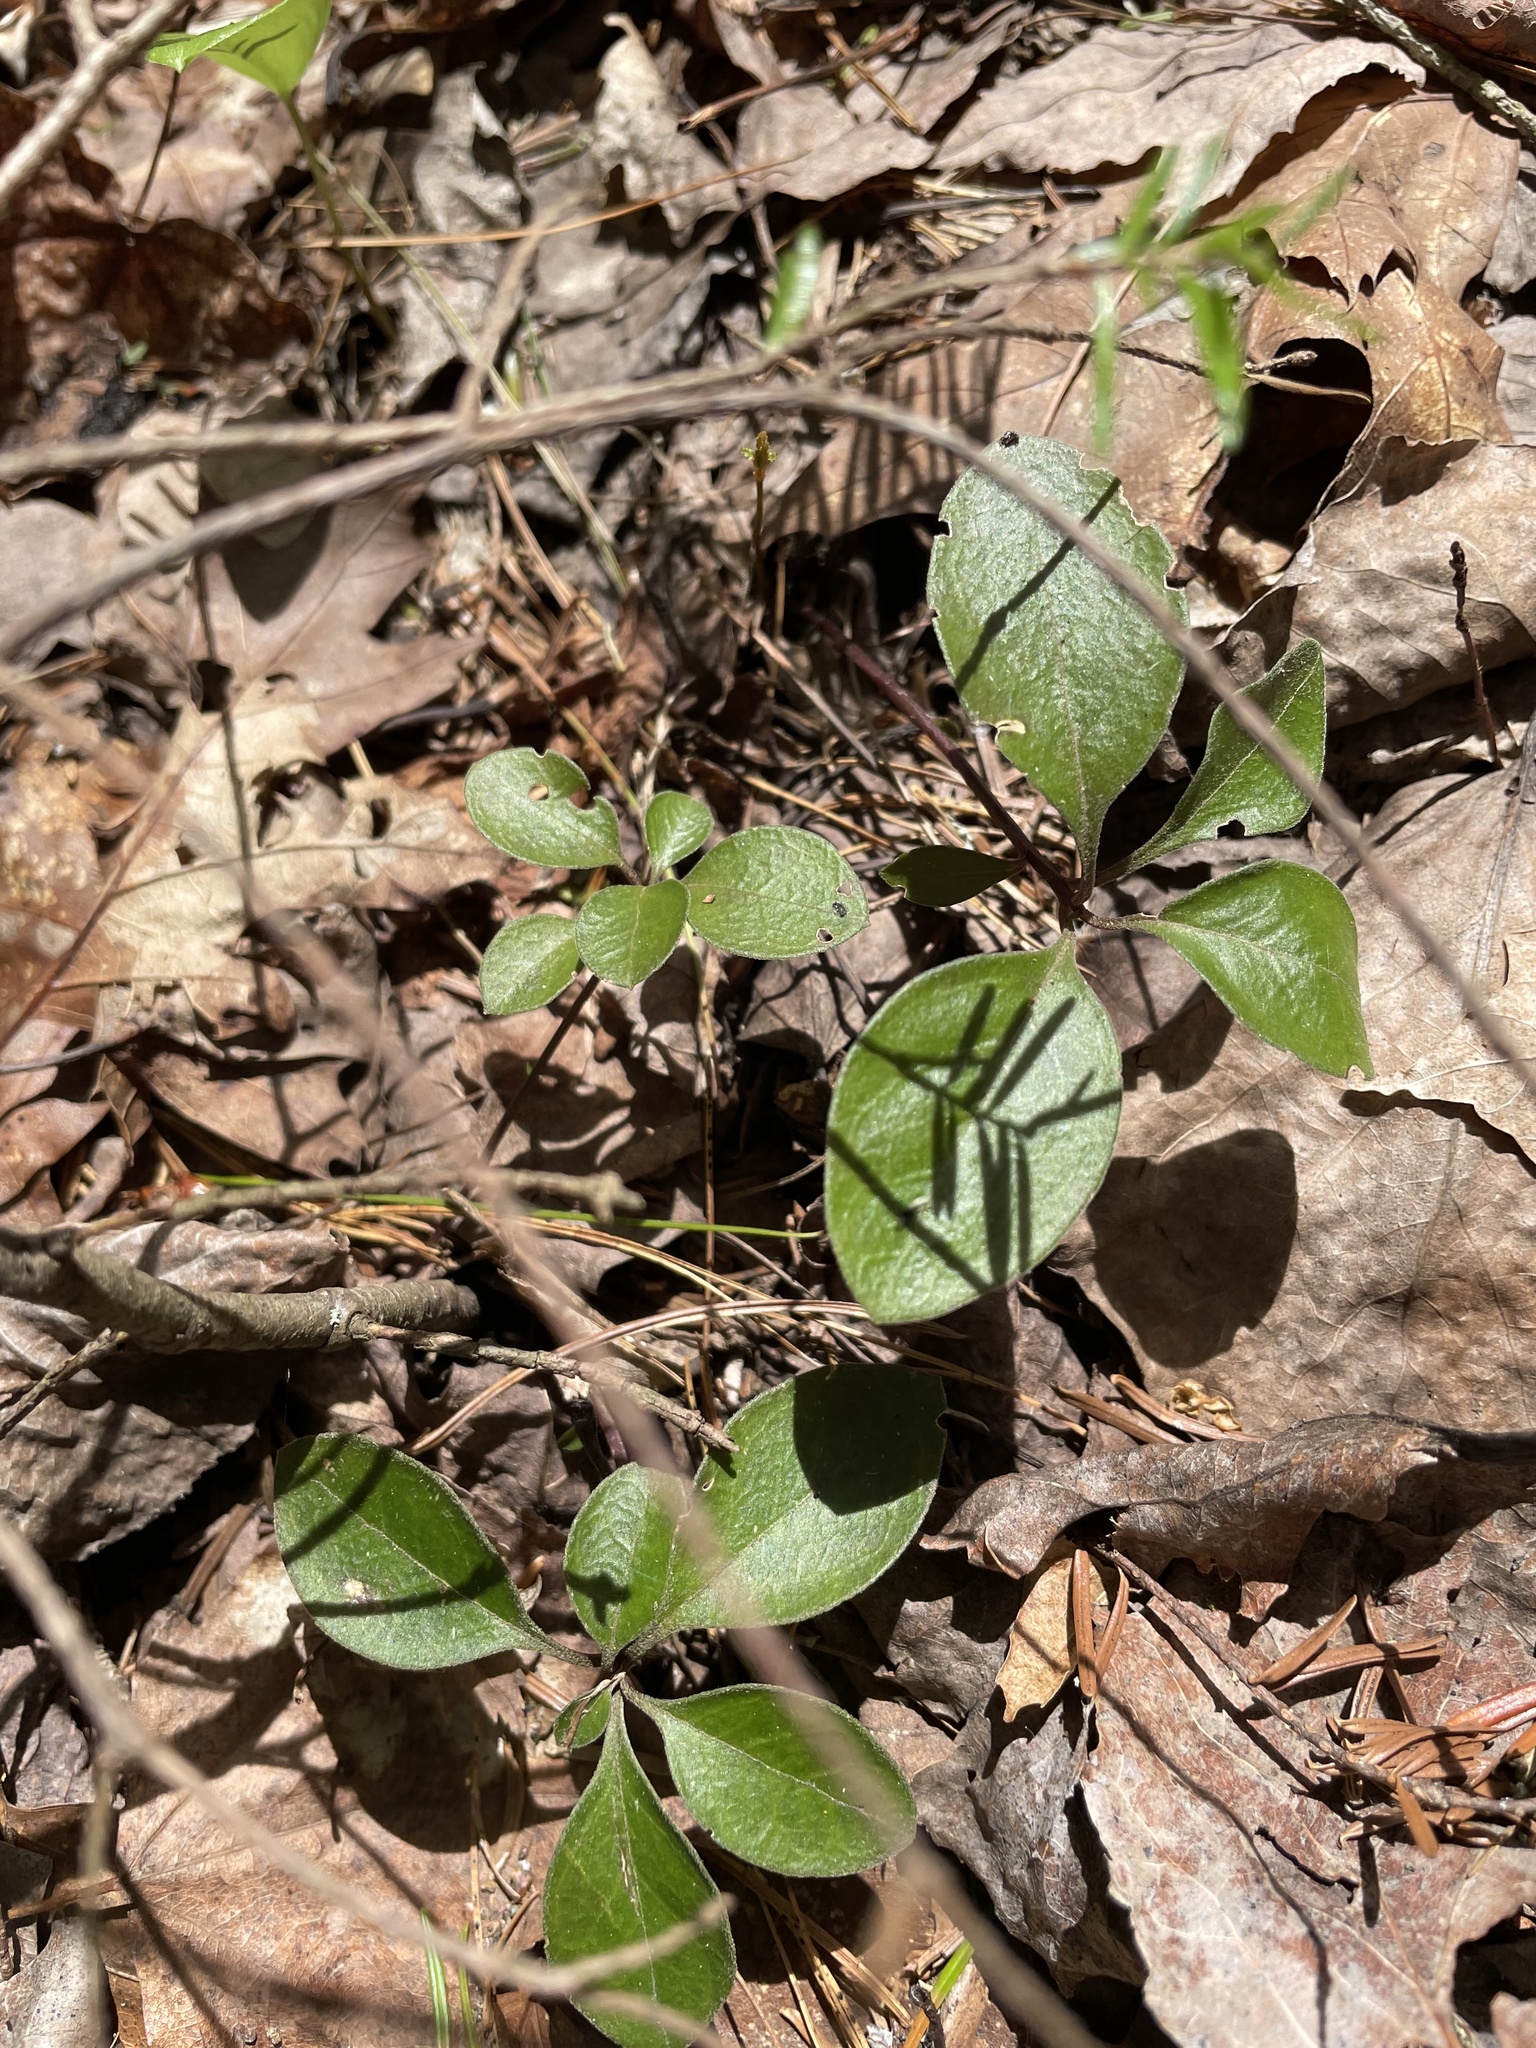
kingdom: Plantae
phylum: Tracheophyta
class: Magnoliopsida
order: Fabales
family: Polygalaceae
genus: Polygaloides
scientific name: Polygaloides paucifolia
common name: Bird-on-the-wing
